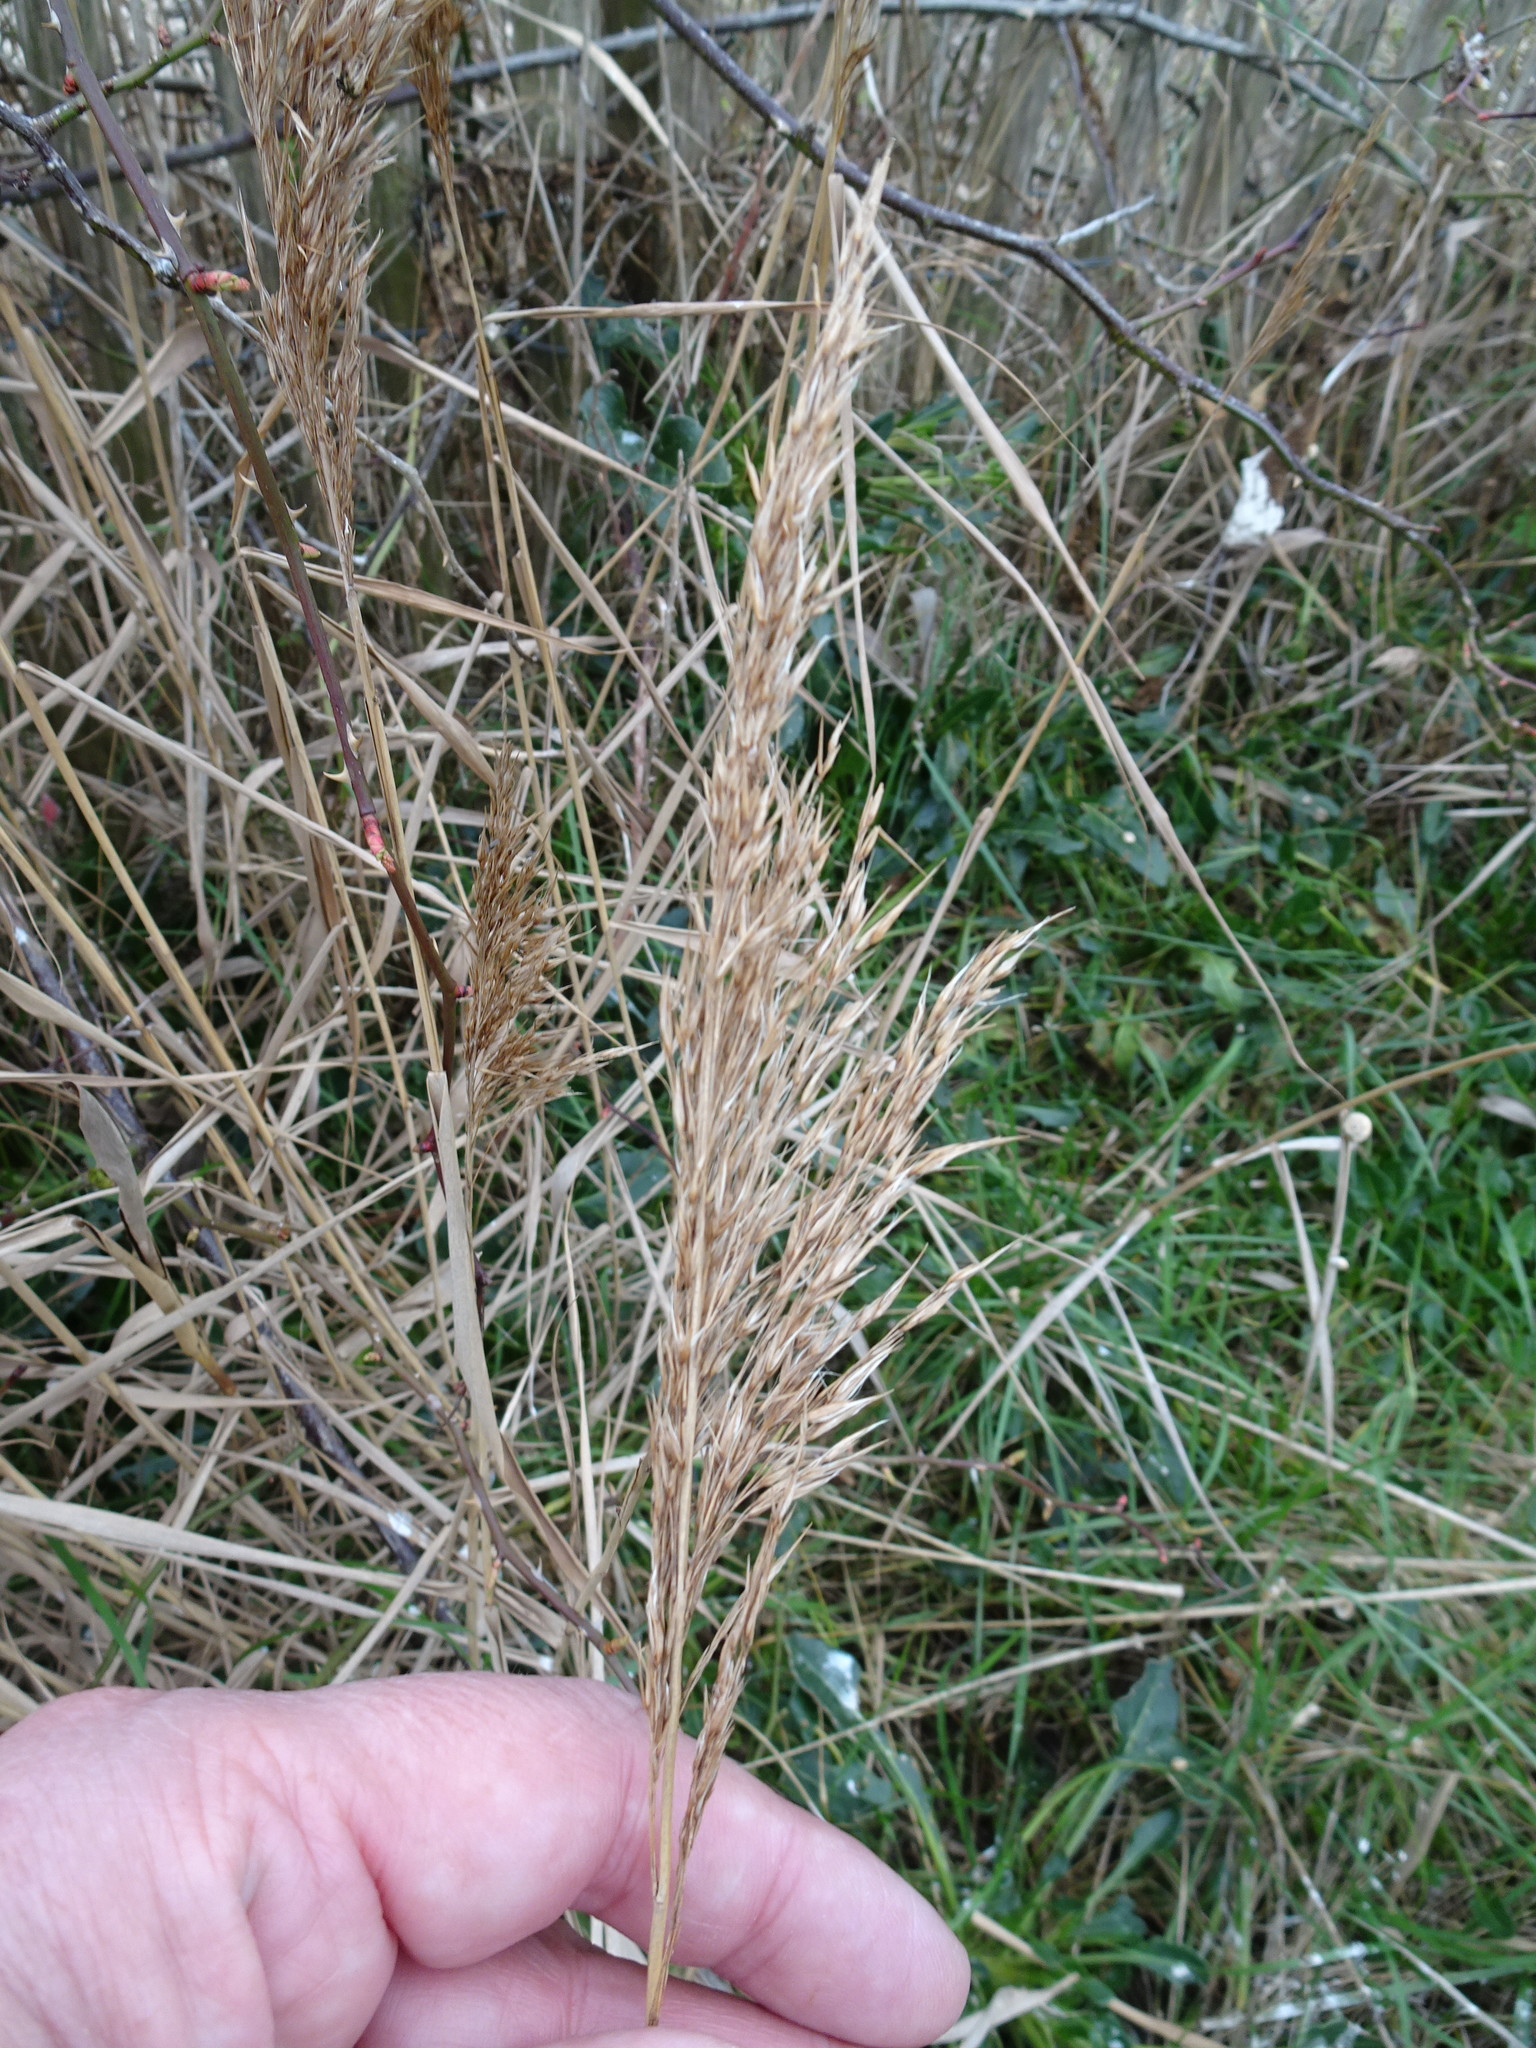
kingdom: Plantae
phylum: Tracheophyta
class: Liliopsida
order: Poales
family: Poaceae
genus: Phragmites
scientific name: Phragmites australis
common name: Common reed
